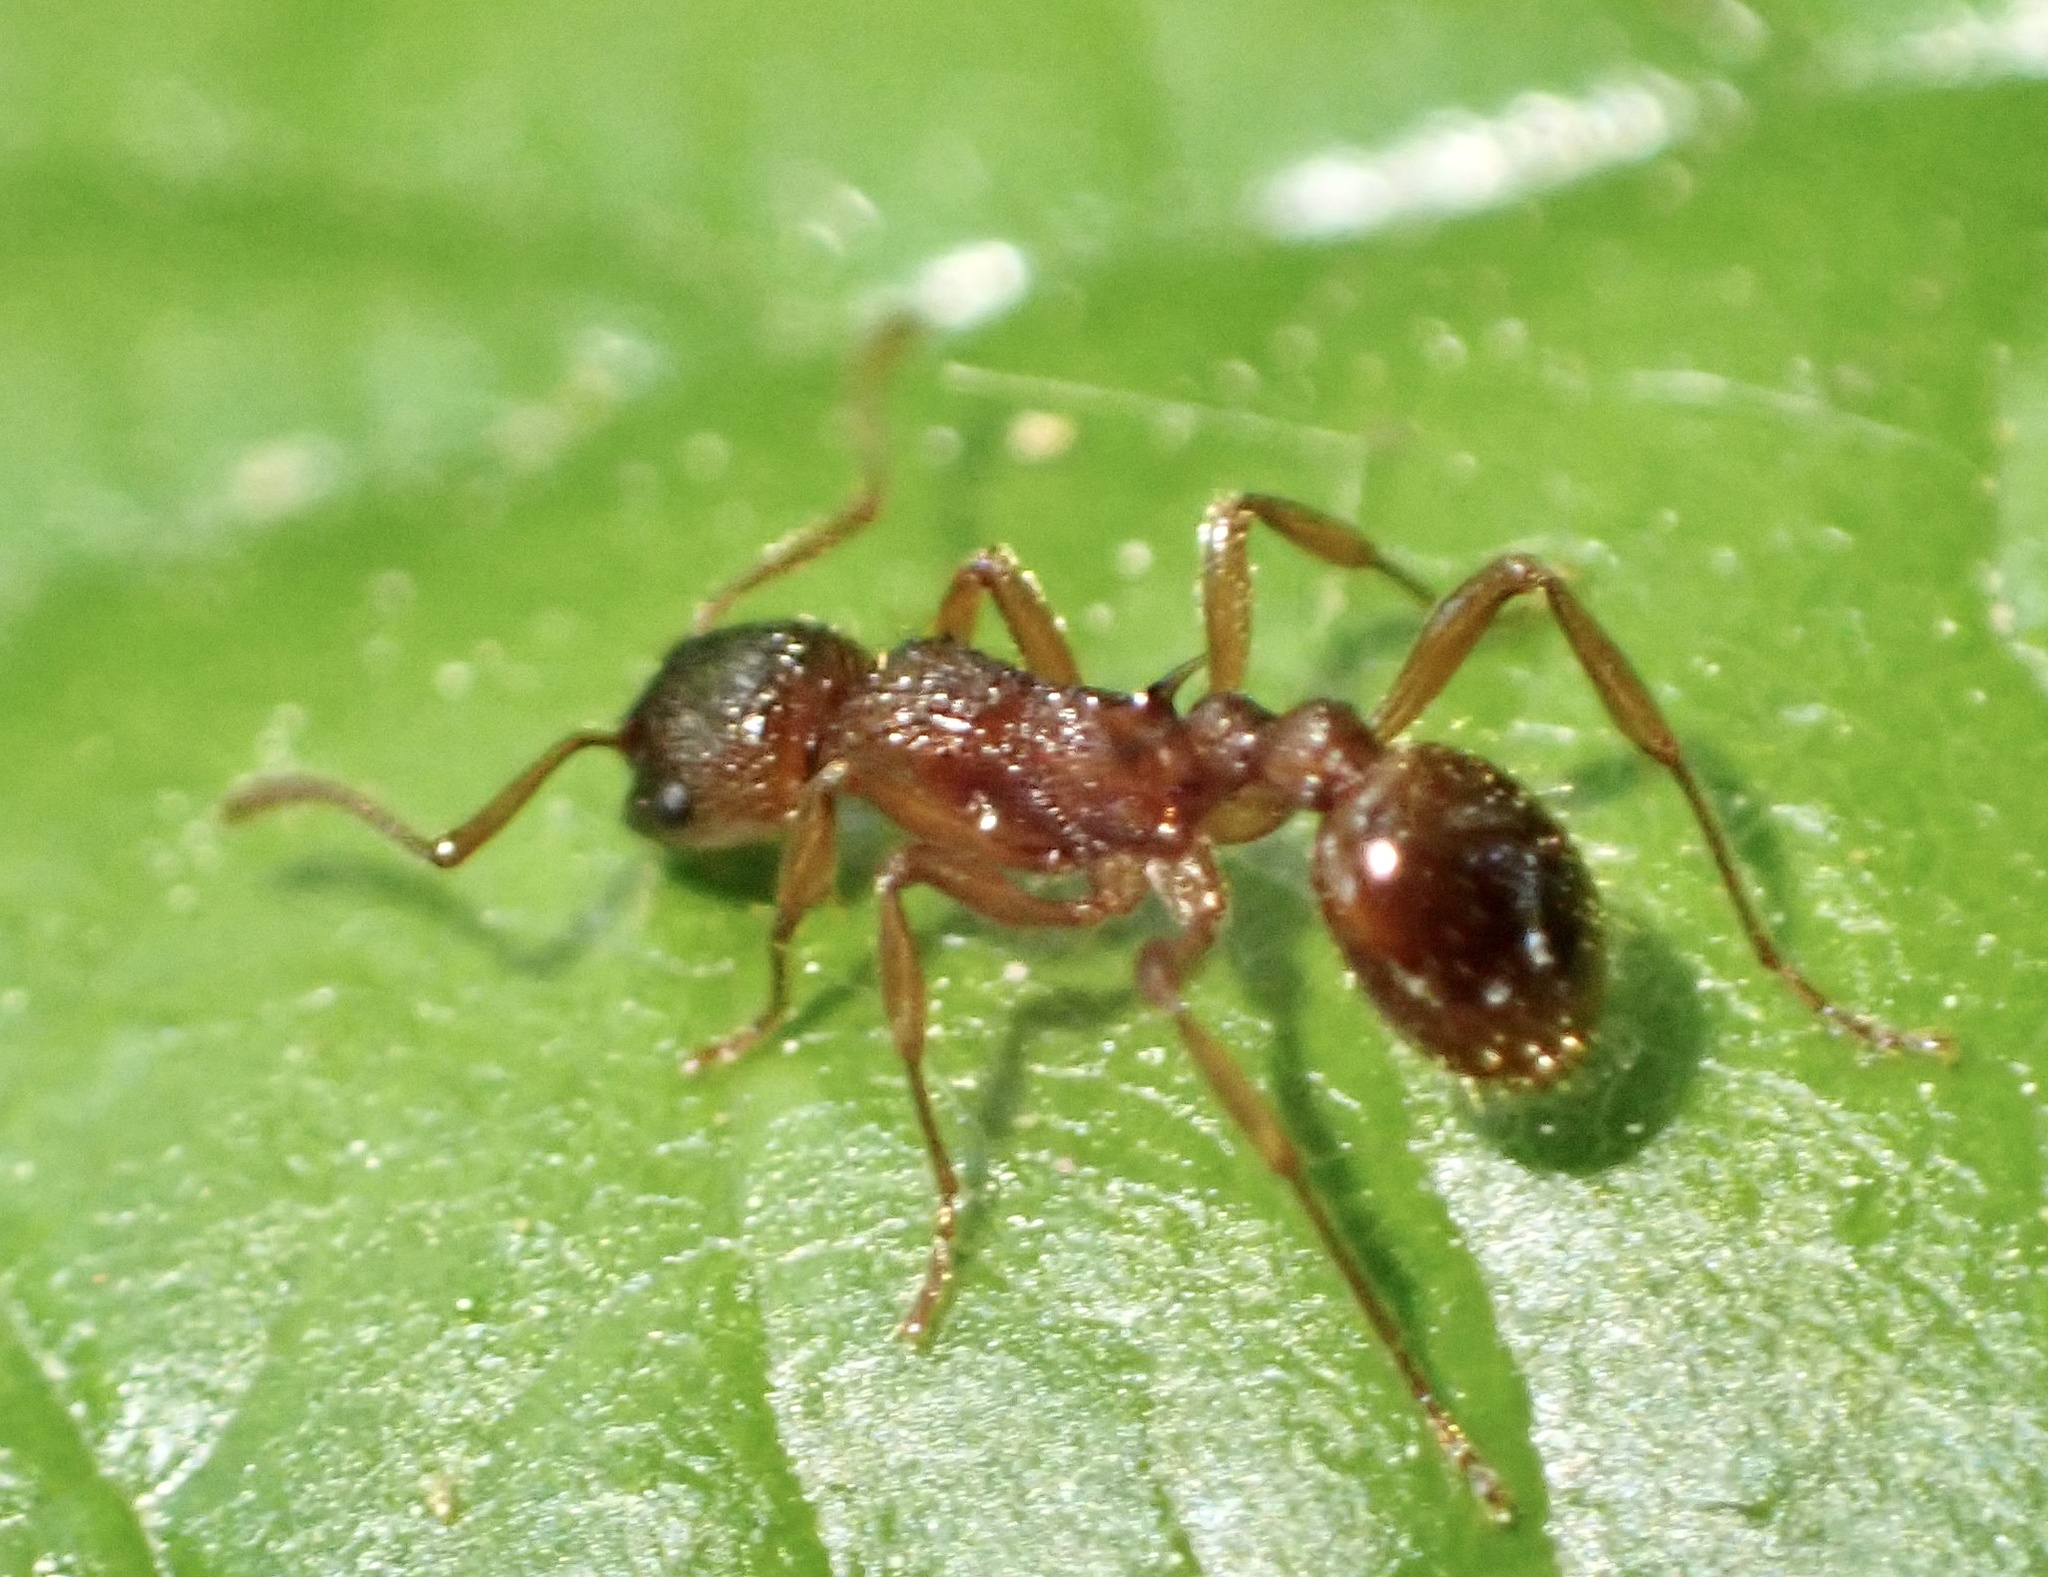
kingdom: Animalia
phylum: Arthropoda
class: Insecta
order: Hymenoptera
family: Formicidae
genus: Myrmica
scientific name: Myrmica ruginodis
